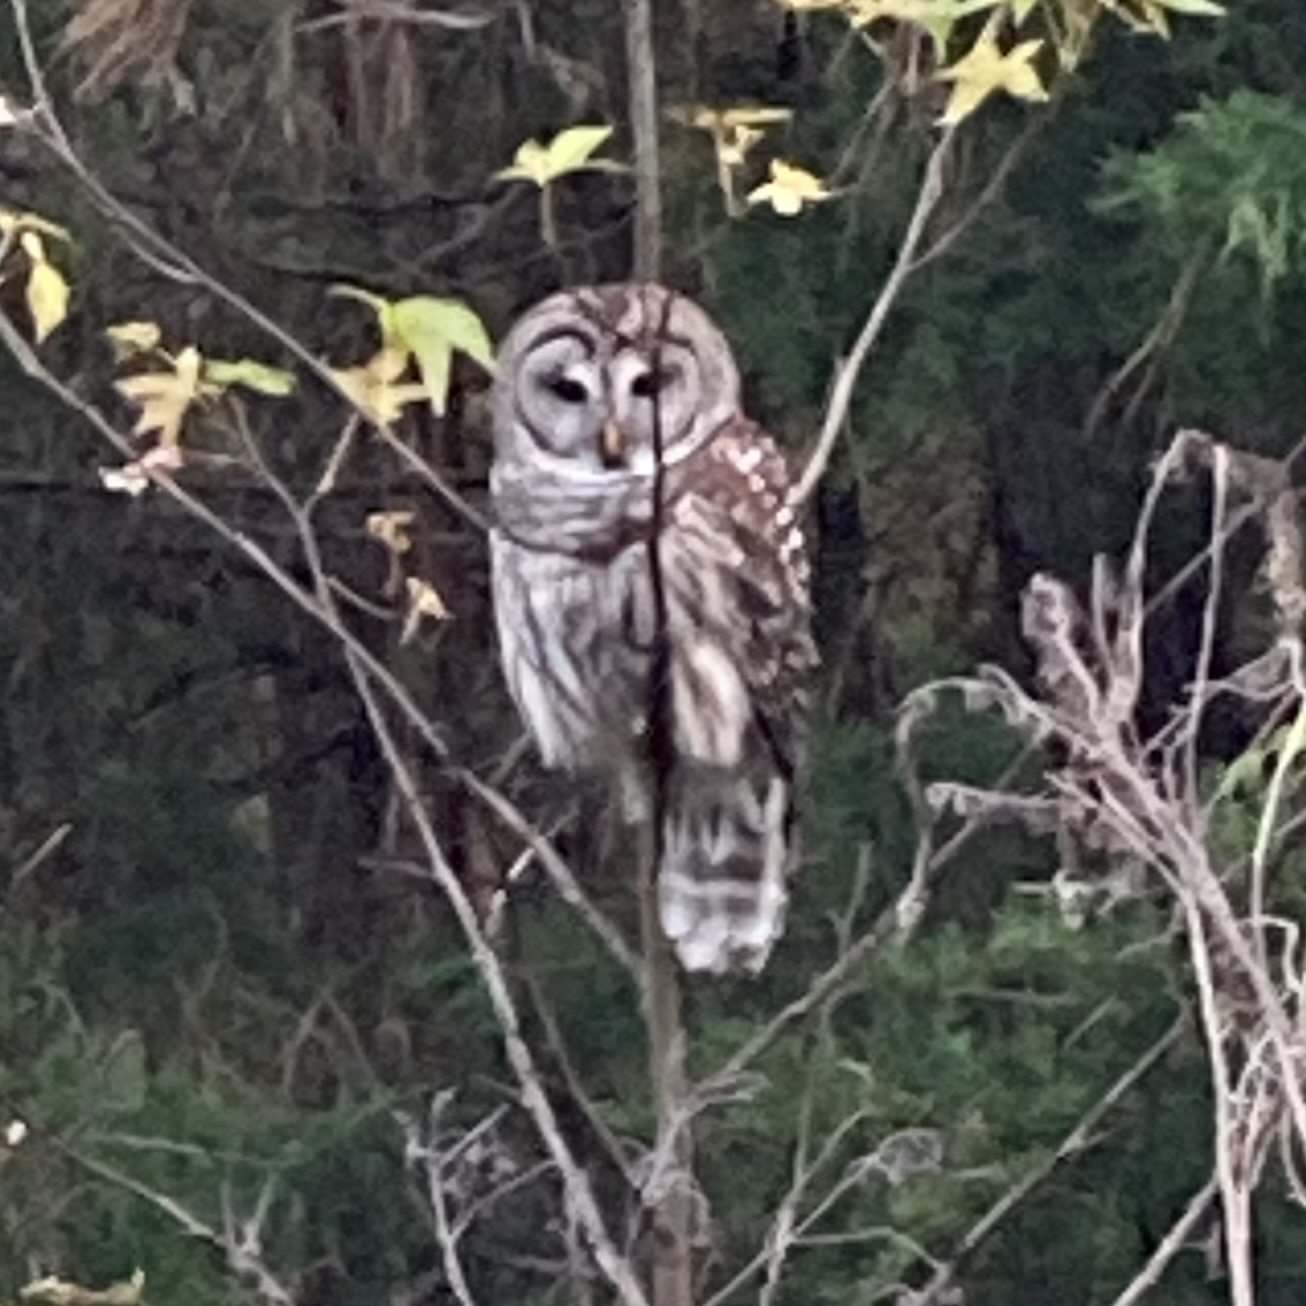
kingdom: Animalia
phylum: Chordata
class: Aves
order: Strigiformes
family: Strigidae
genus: Strix
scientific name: Strix varia
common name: Barred owl
